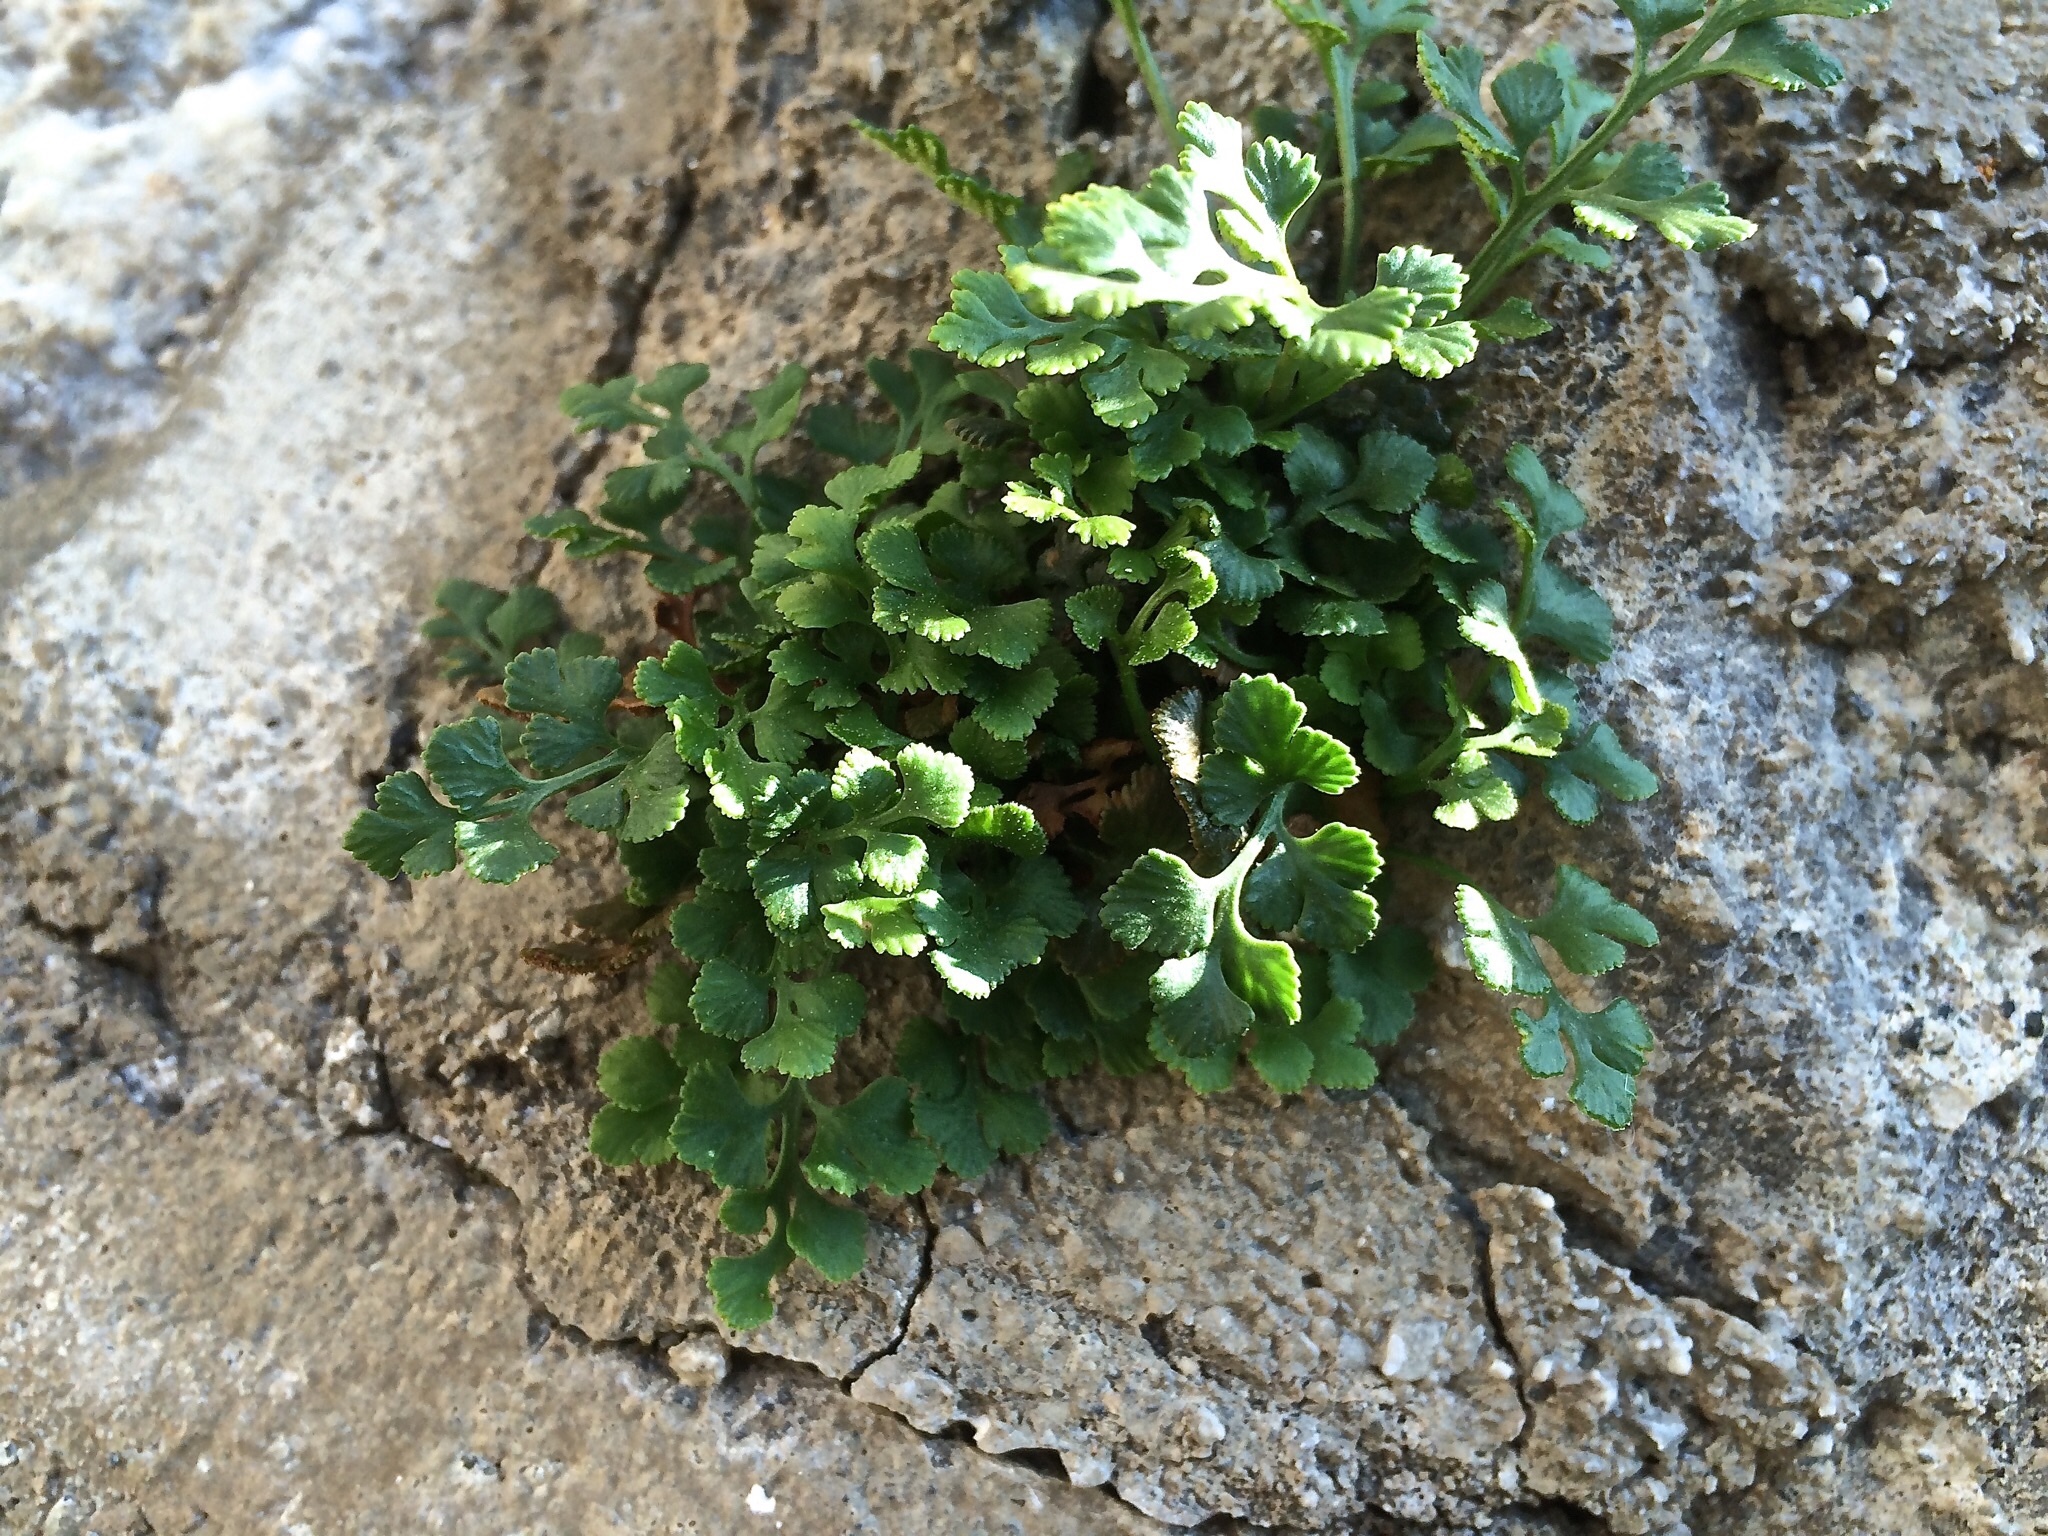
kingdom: Plantae
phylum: Tracheophyta
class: Polypodiopsida
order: Polypodiales
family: Aspleniaceae
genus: Asplenium
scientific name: Asplenium ruta-muraria
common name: Wall-rue
